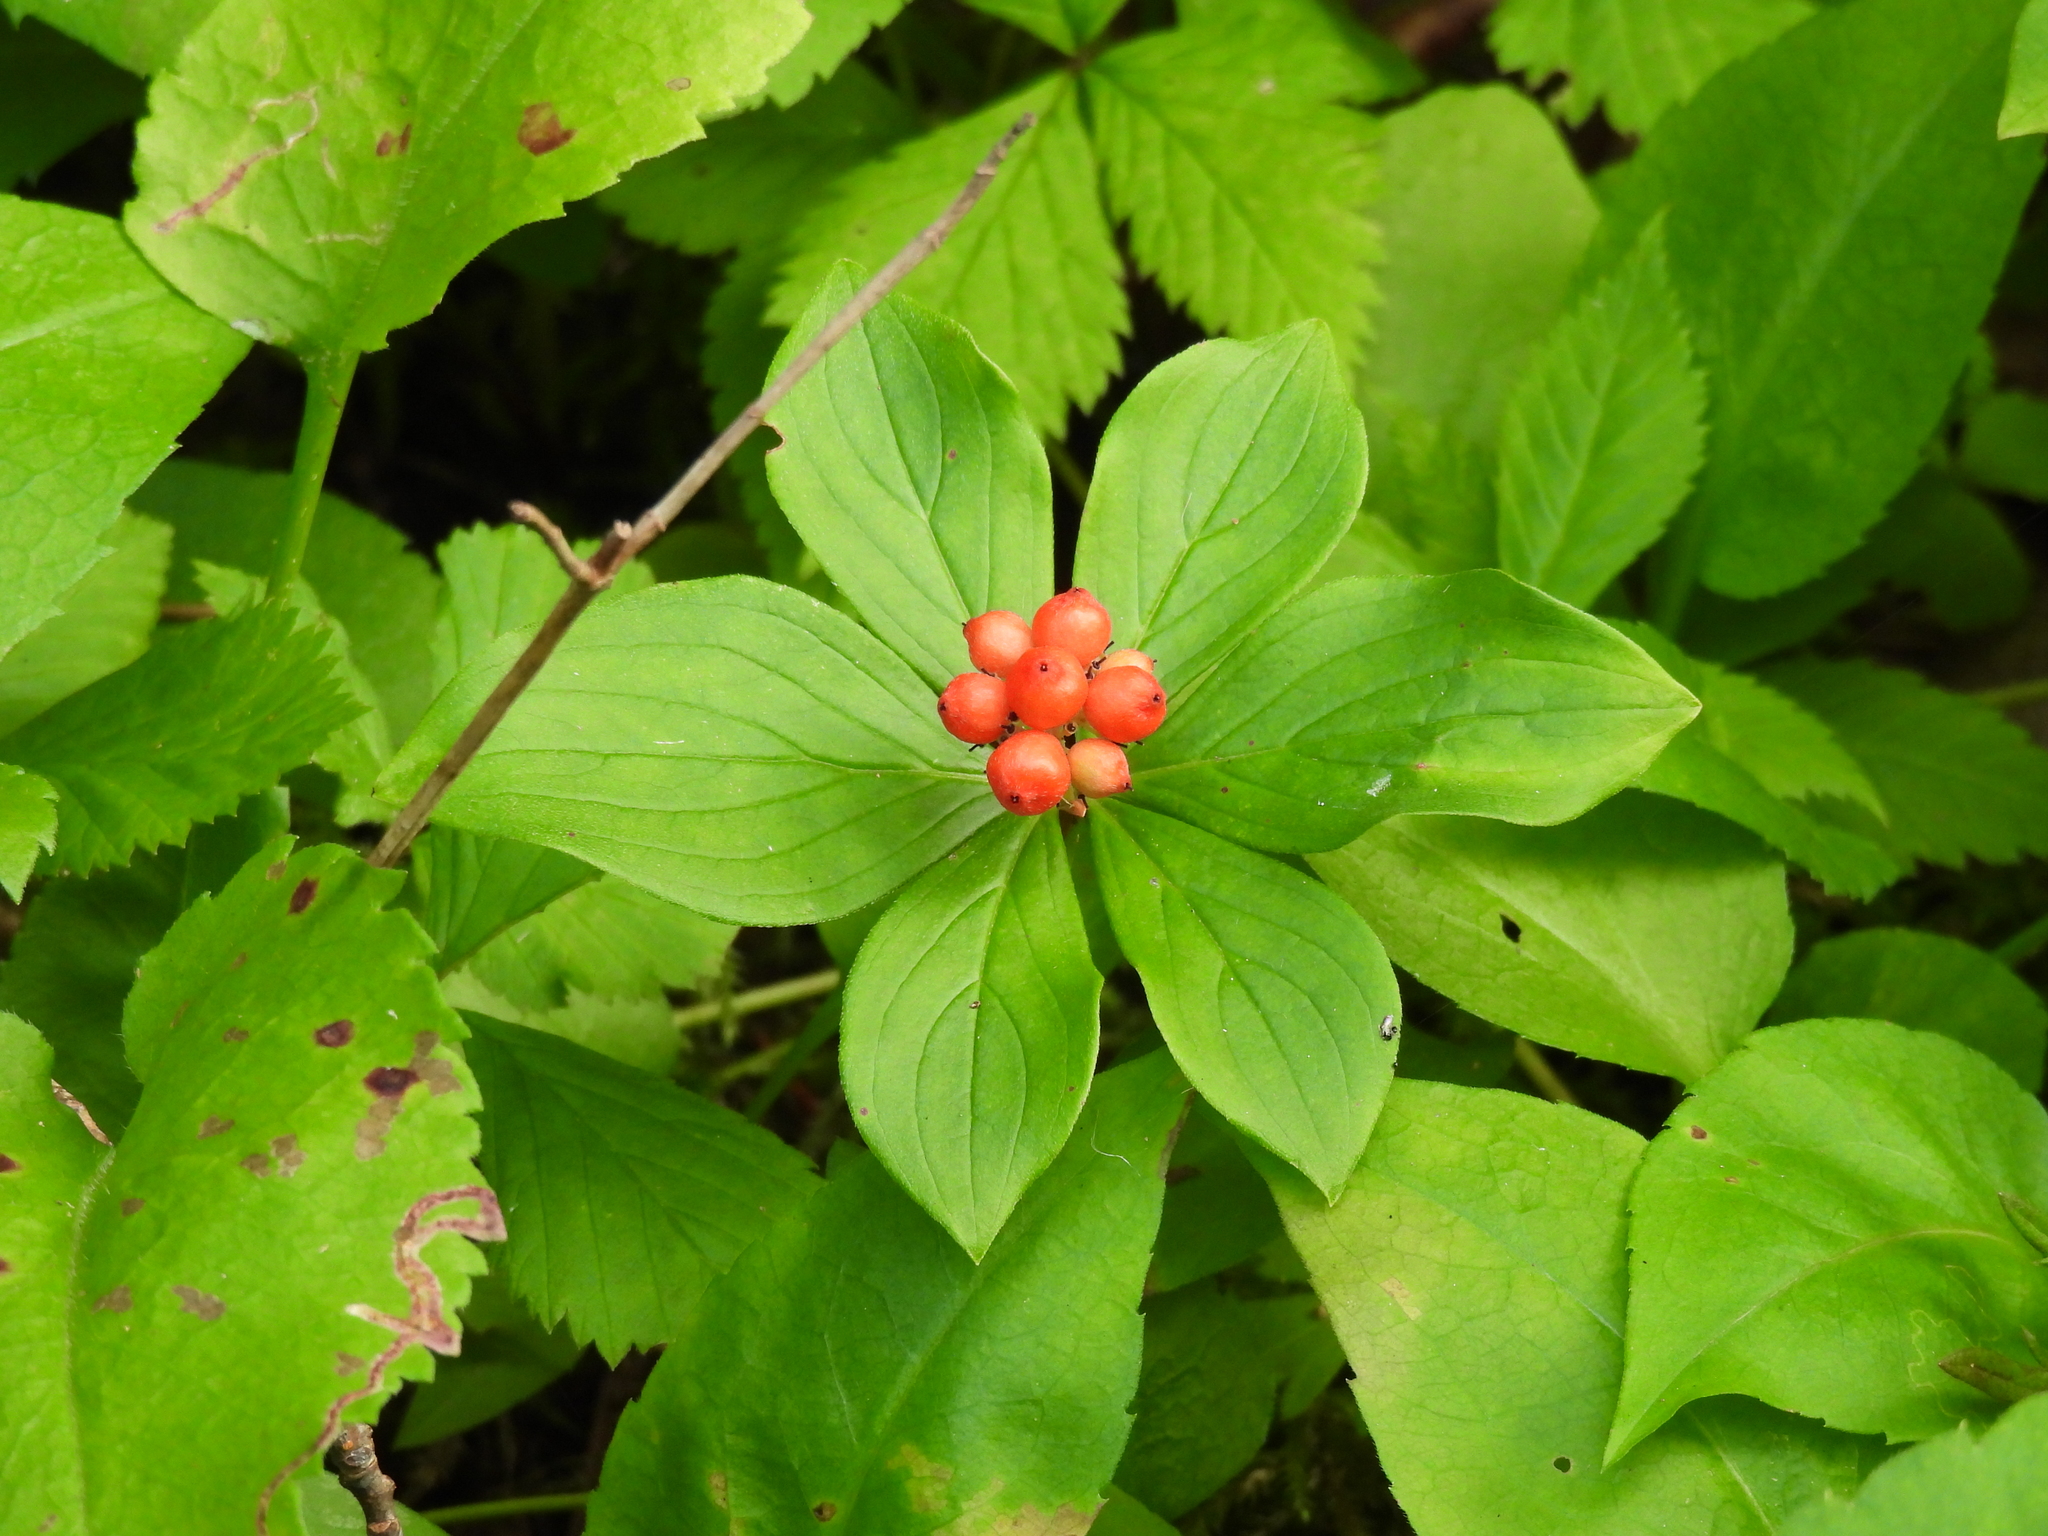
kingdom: Plantae
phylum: Tracheophyta
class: Magnoliopsida
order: Cornales
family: Cornaceae
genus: Cornus
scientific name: Cornus canadensis
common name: Creeping dogwood
